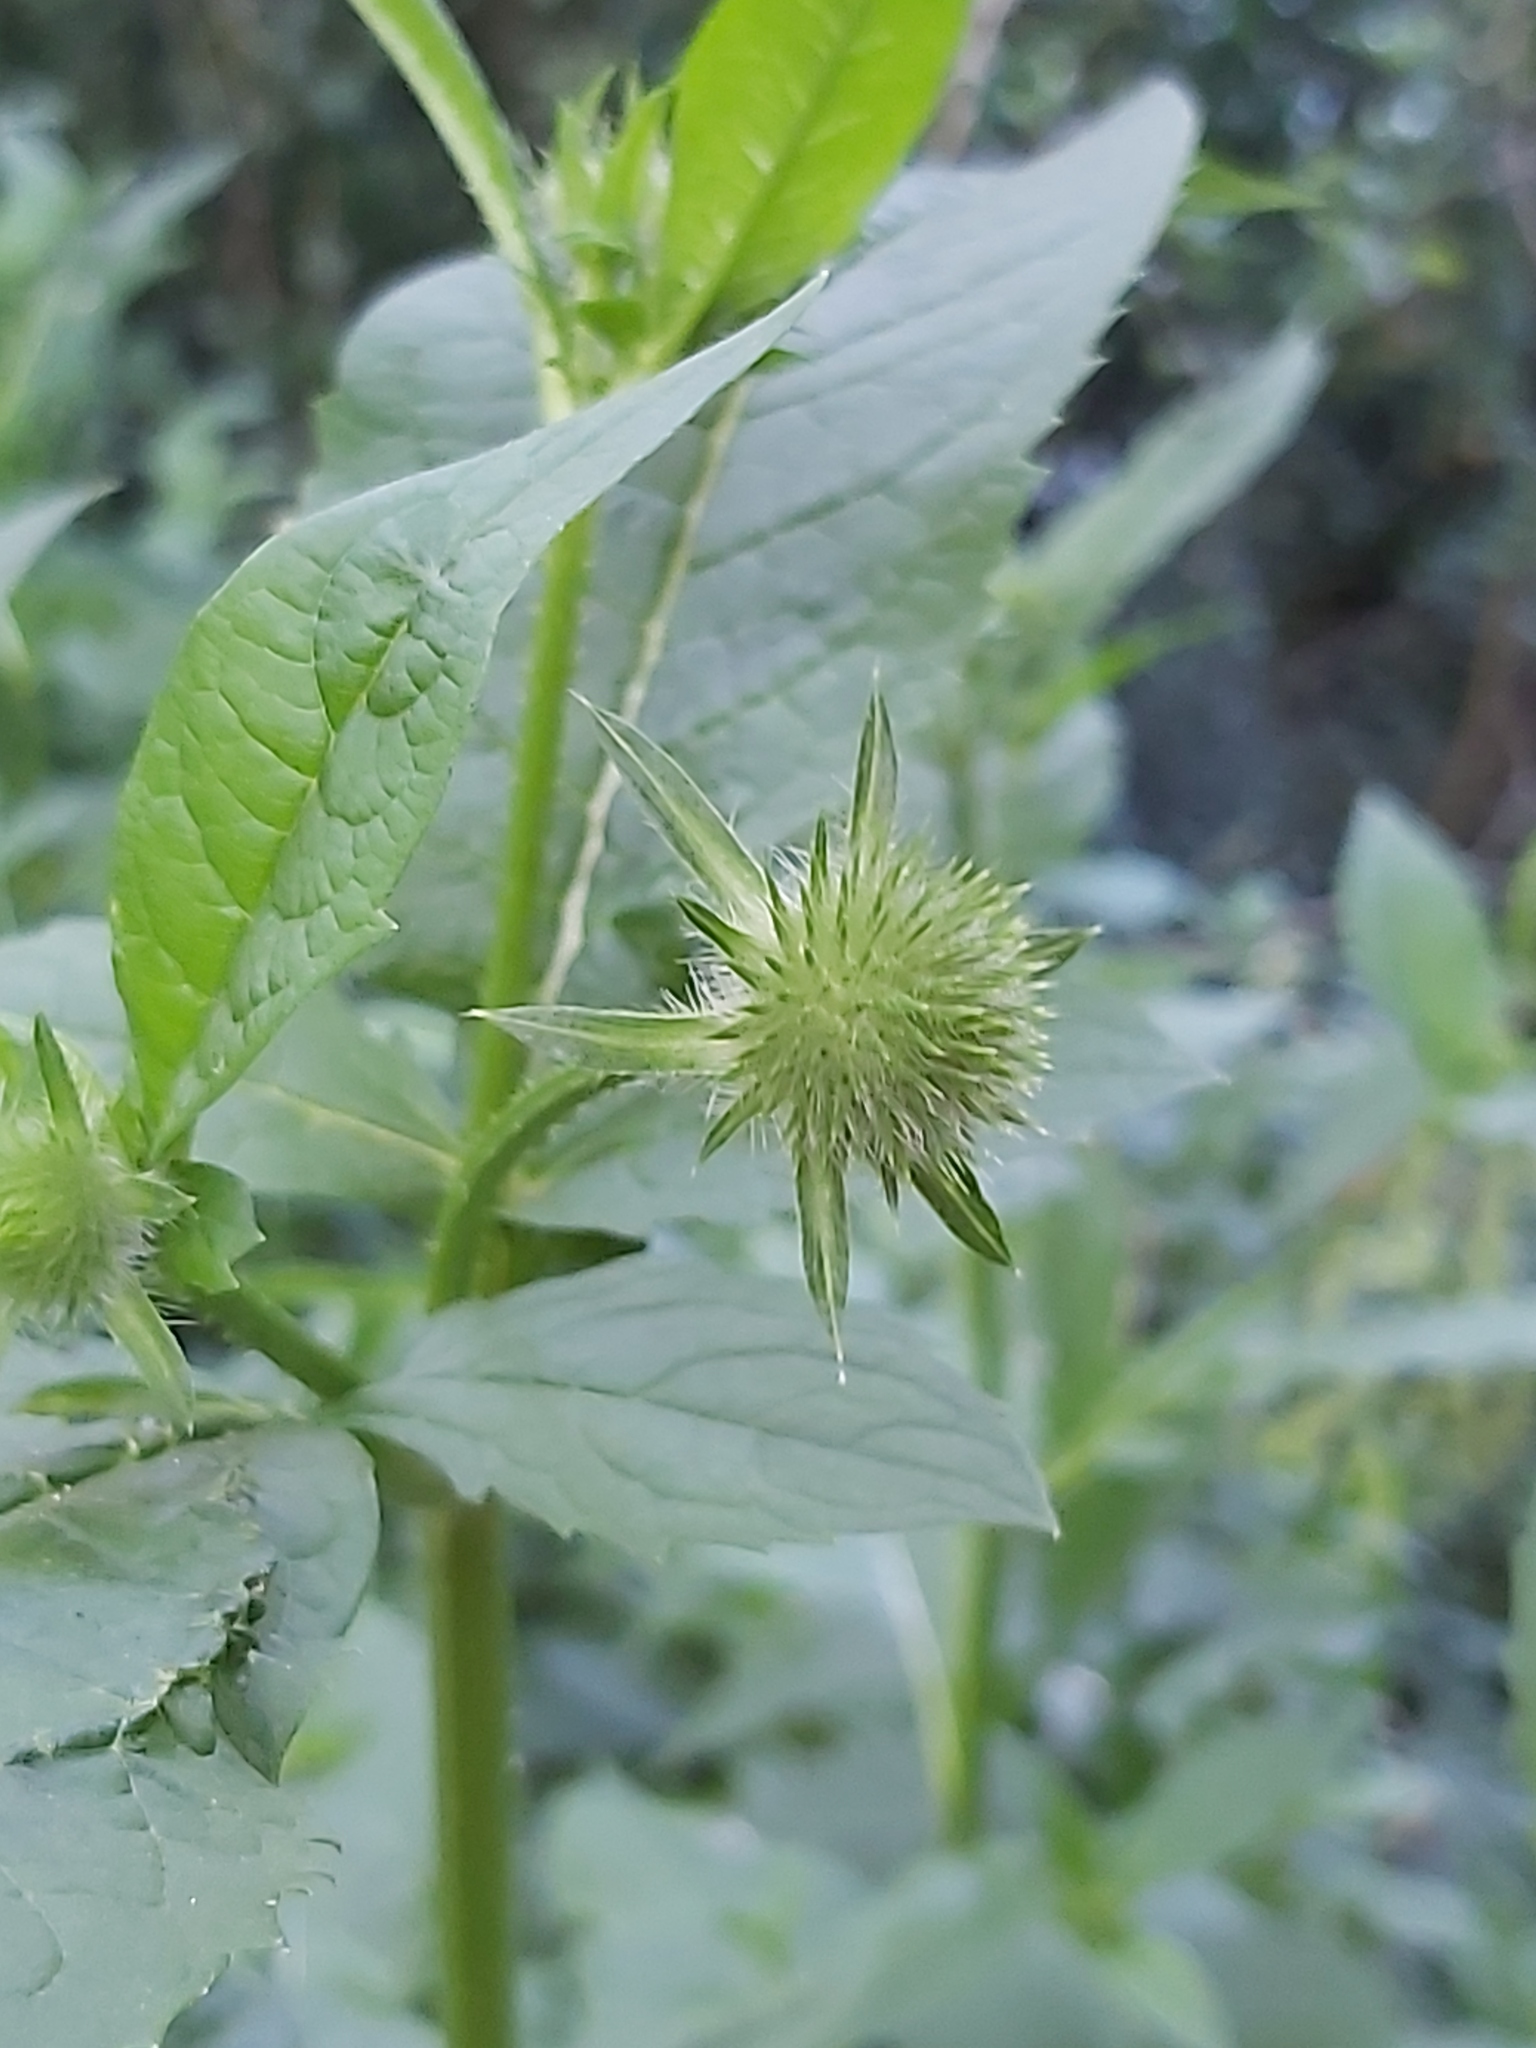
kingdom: Plantae
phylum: Tracheophyta
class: Magnoliopsida
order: Dipsacales
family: Caprifoliaceae
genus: Dipsacus
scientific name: Dipsacus pilosus
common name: Small teasel
